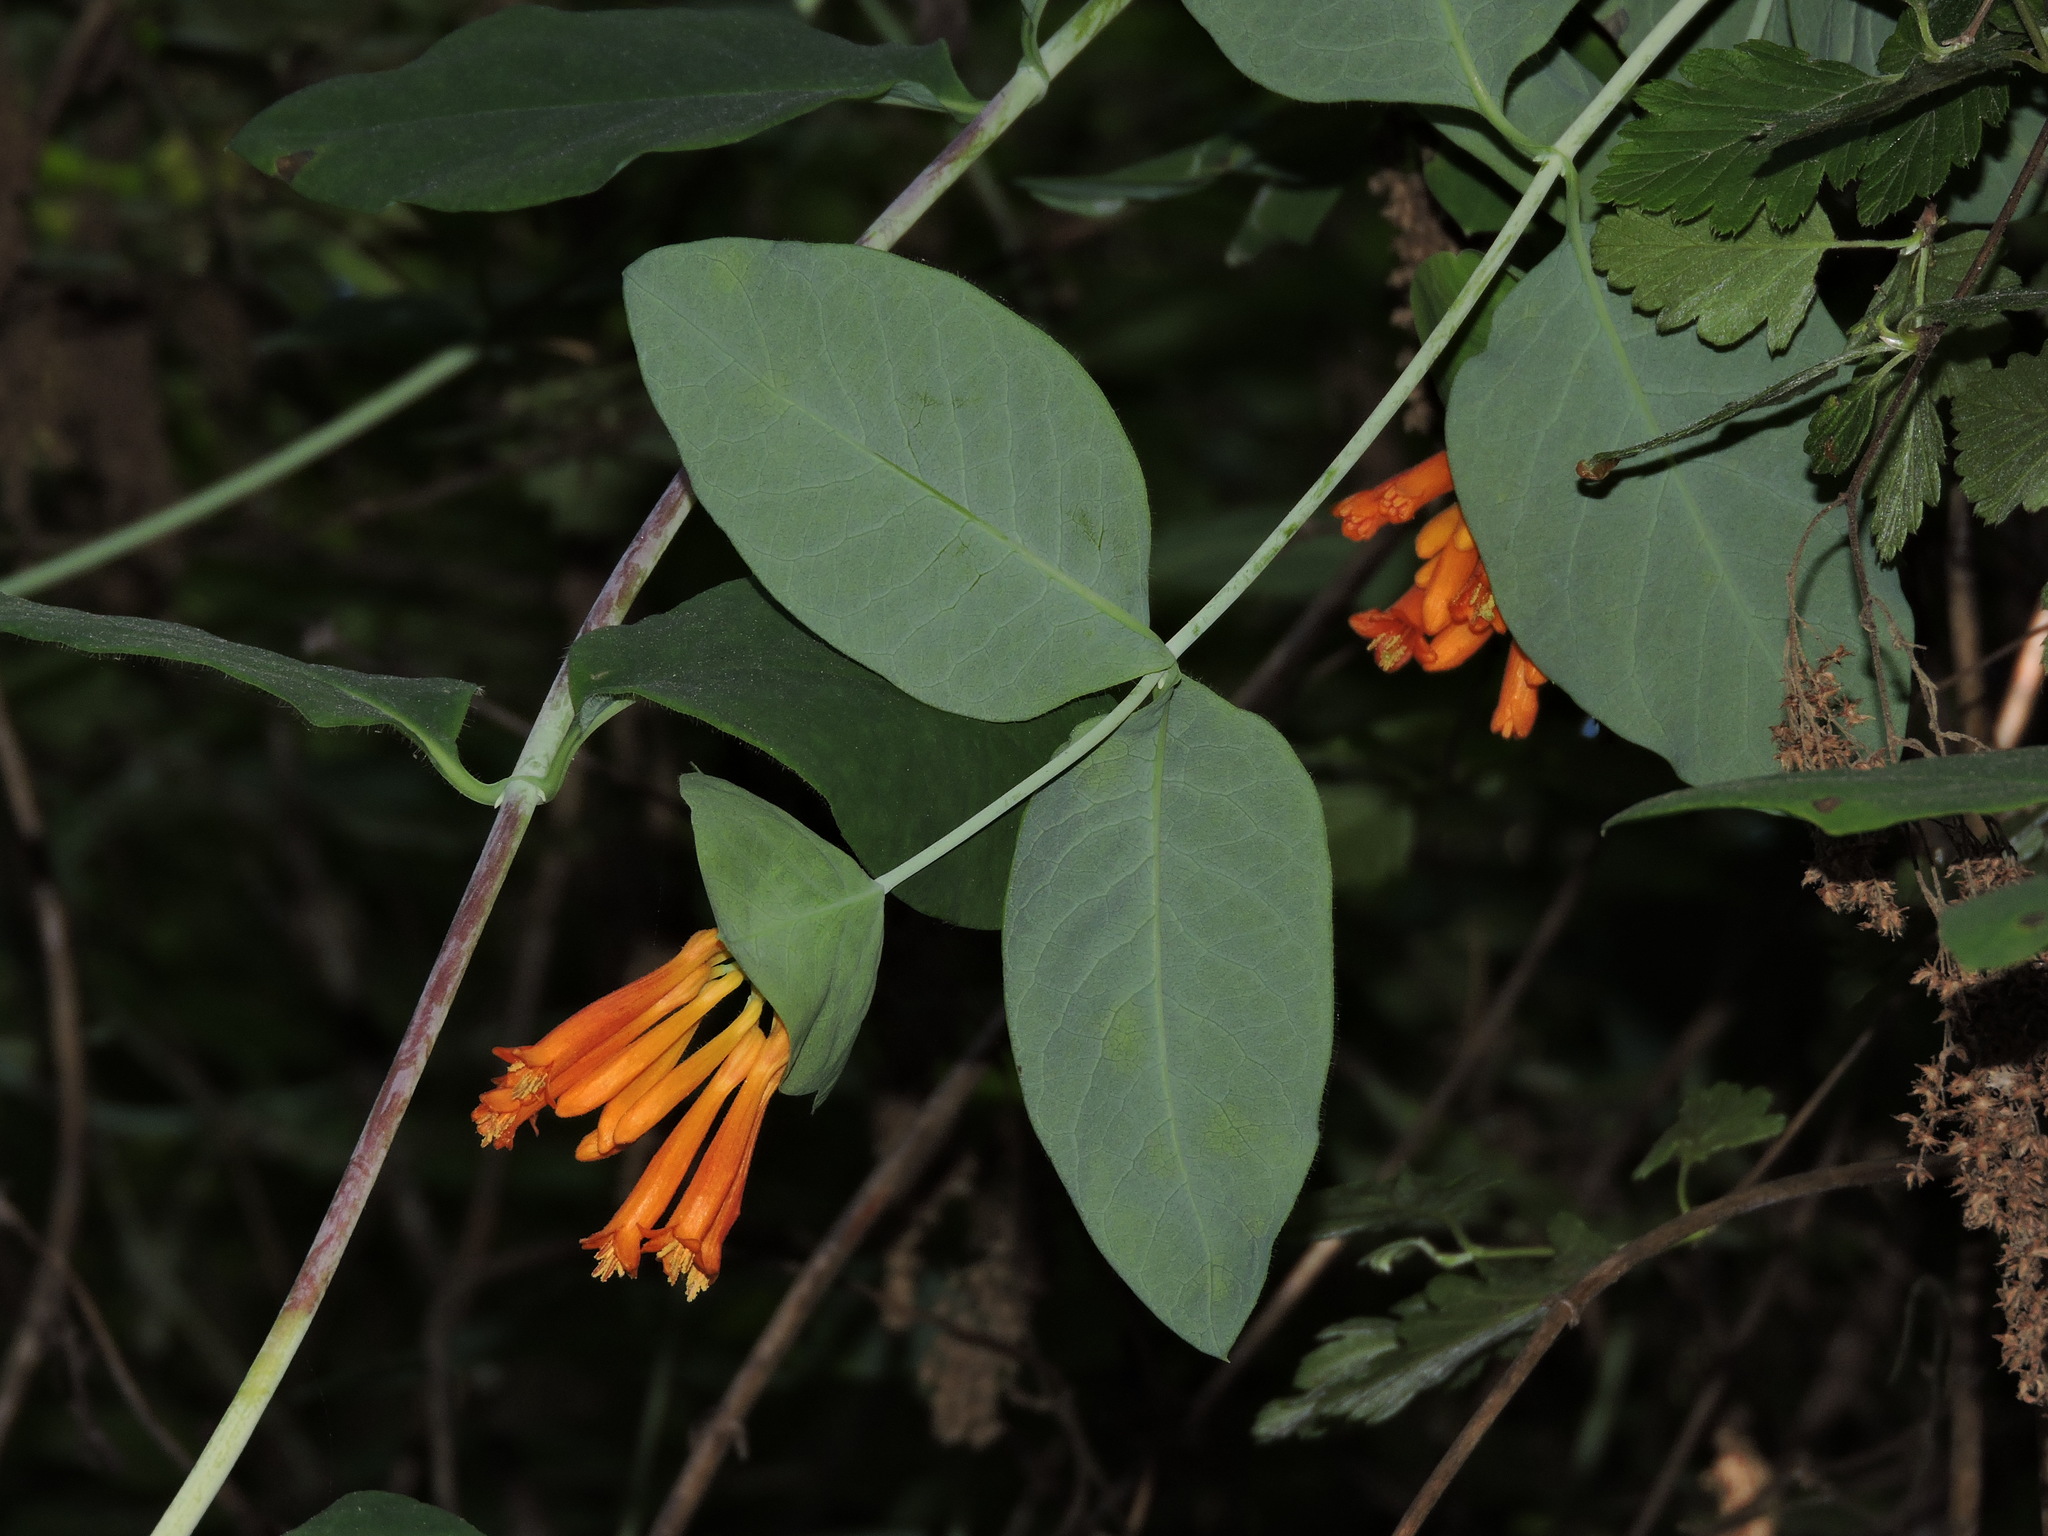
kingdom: Plantae
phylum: Tracheophyta
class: Magnoliopsida
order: Dipsacales
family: Caprifoliaceae
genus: Lonicera
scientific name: Lonicera ciliosa
